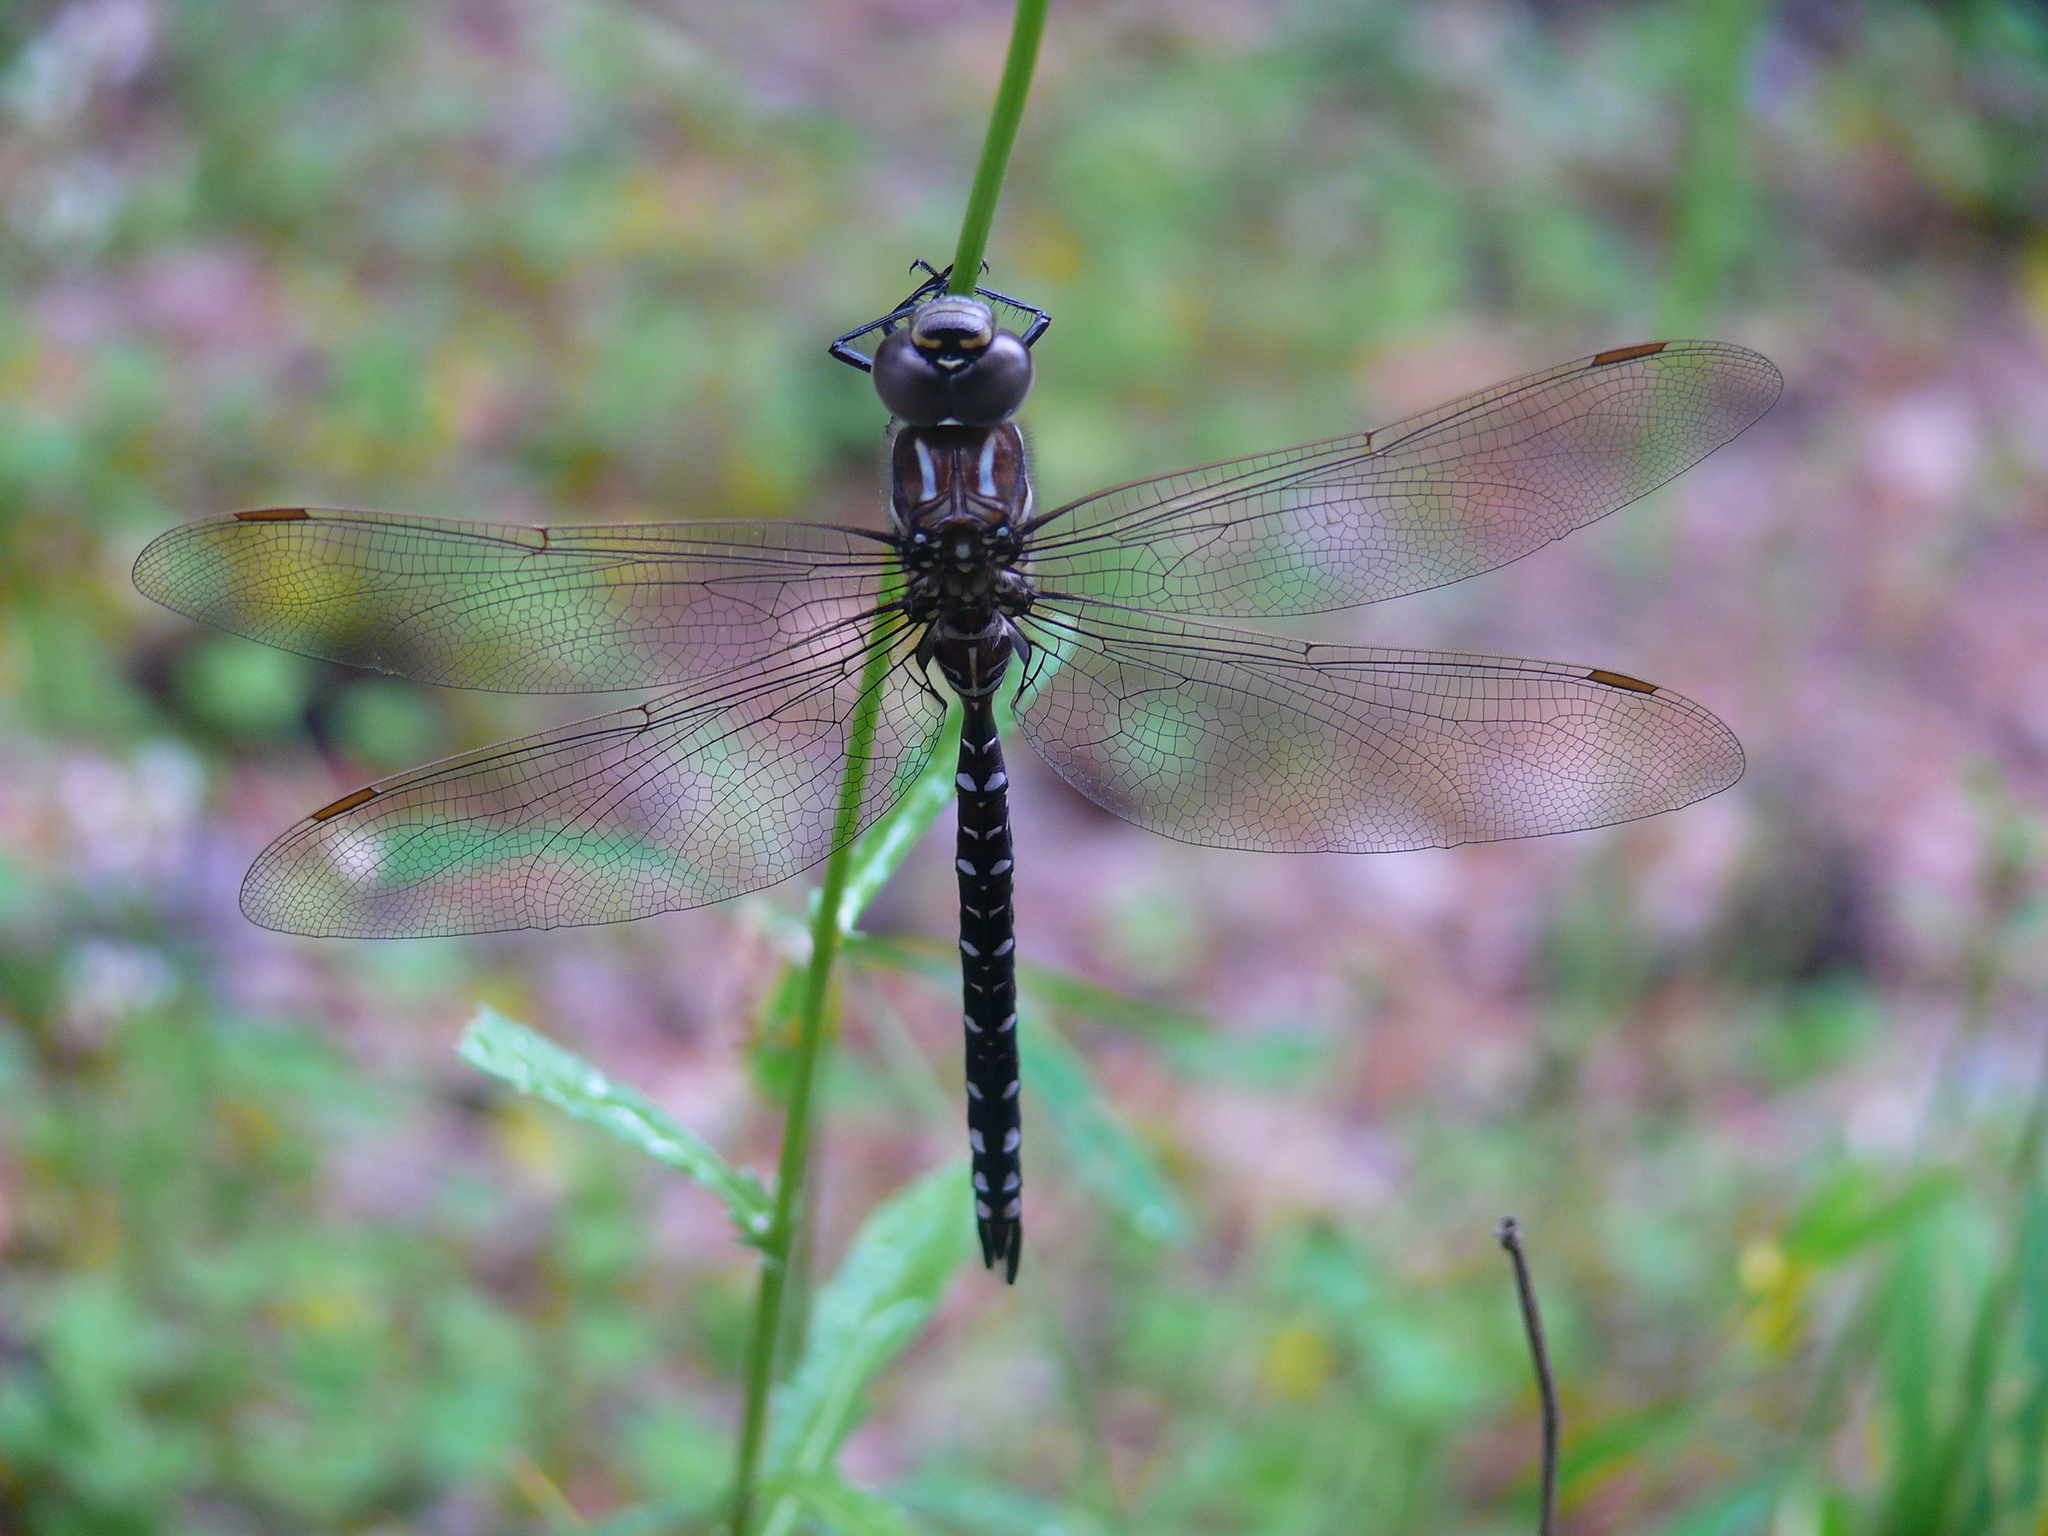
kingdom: Animalia
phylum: Arthropoda
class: Insecta
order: Odonata
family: Aeshnidae
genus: Aeshna
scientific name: Aeshna juncea
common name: Moorland hawker
